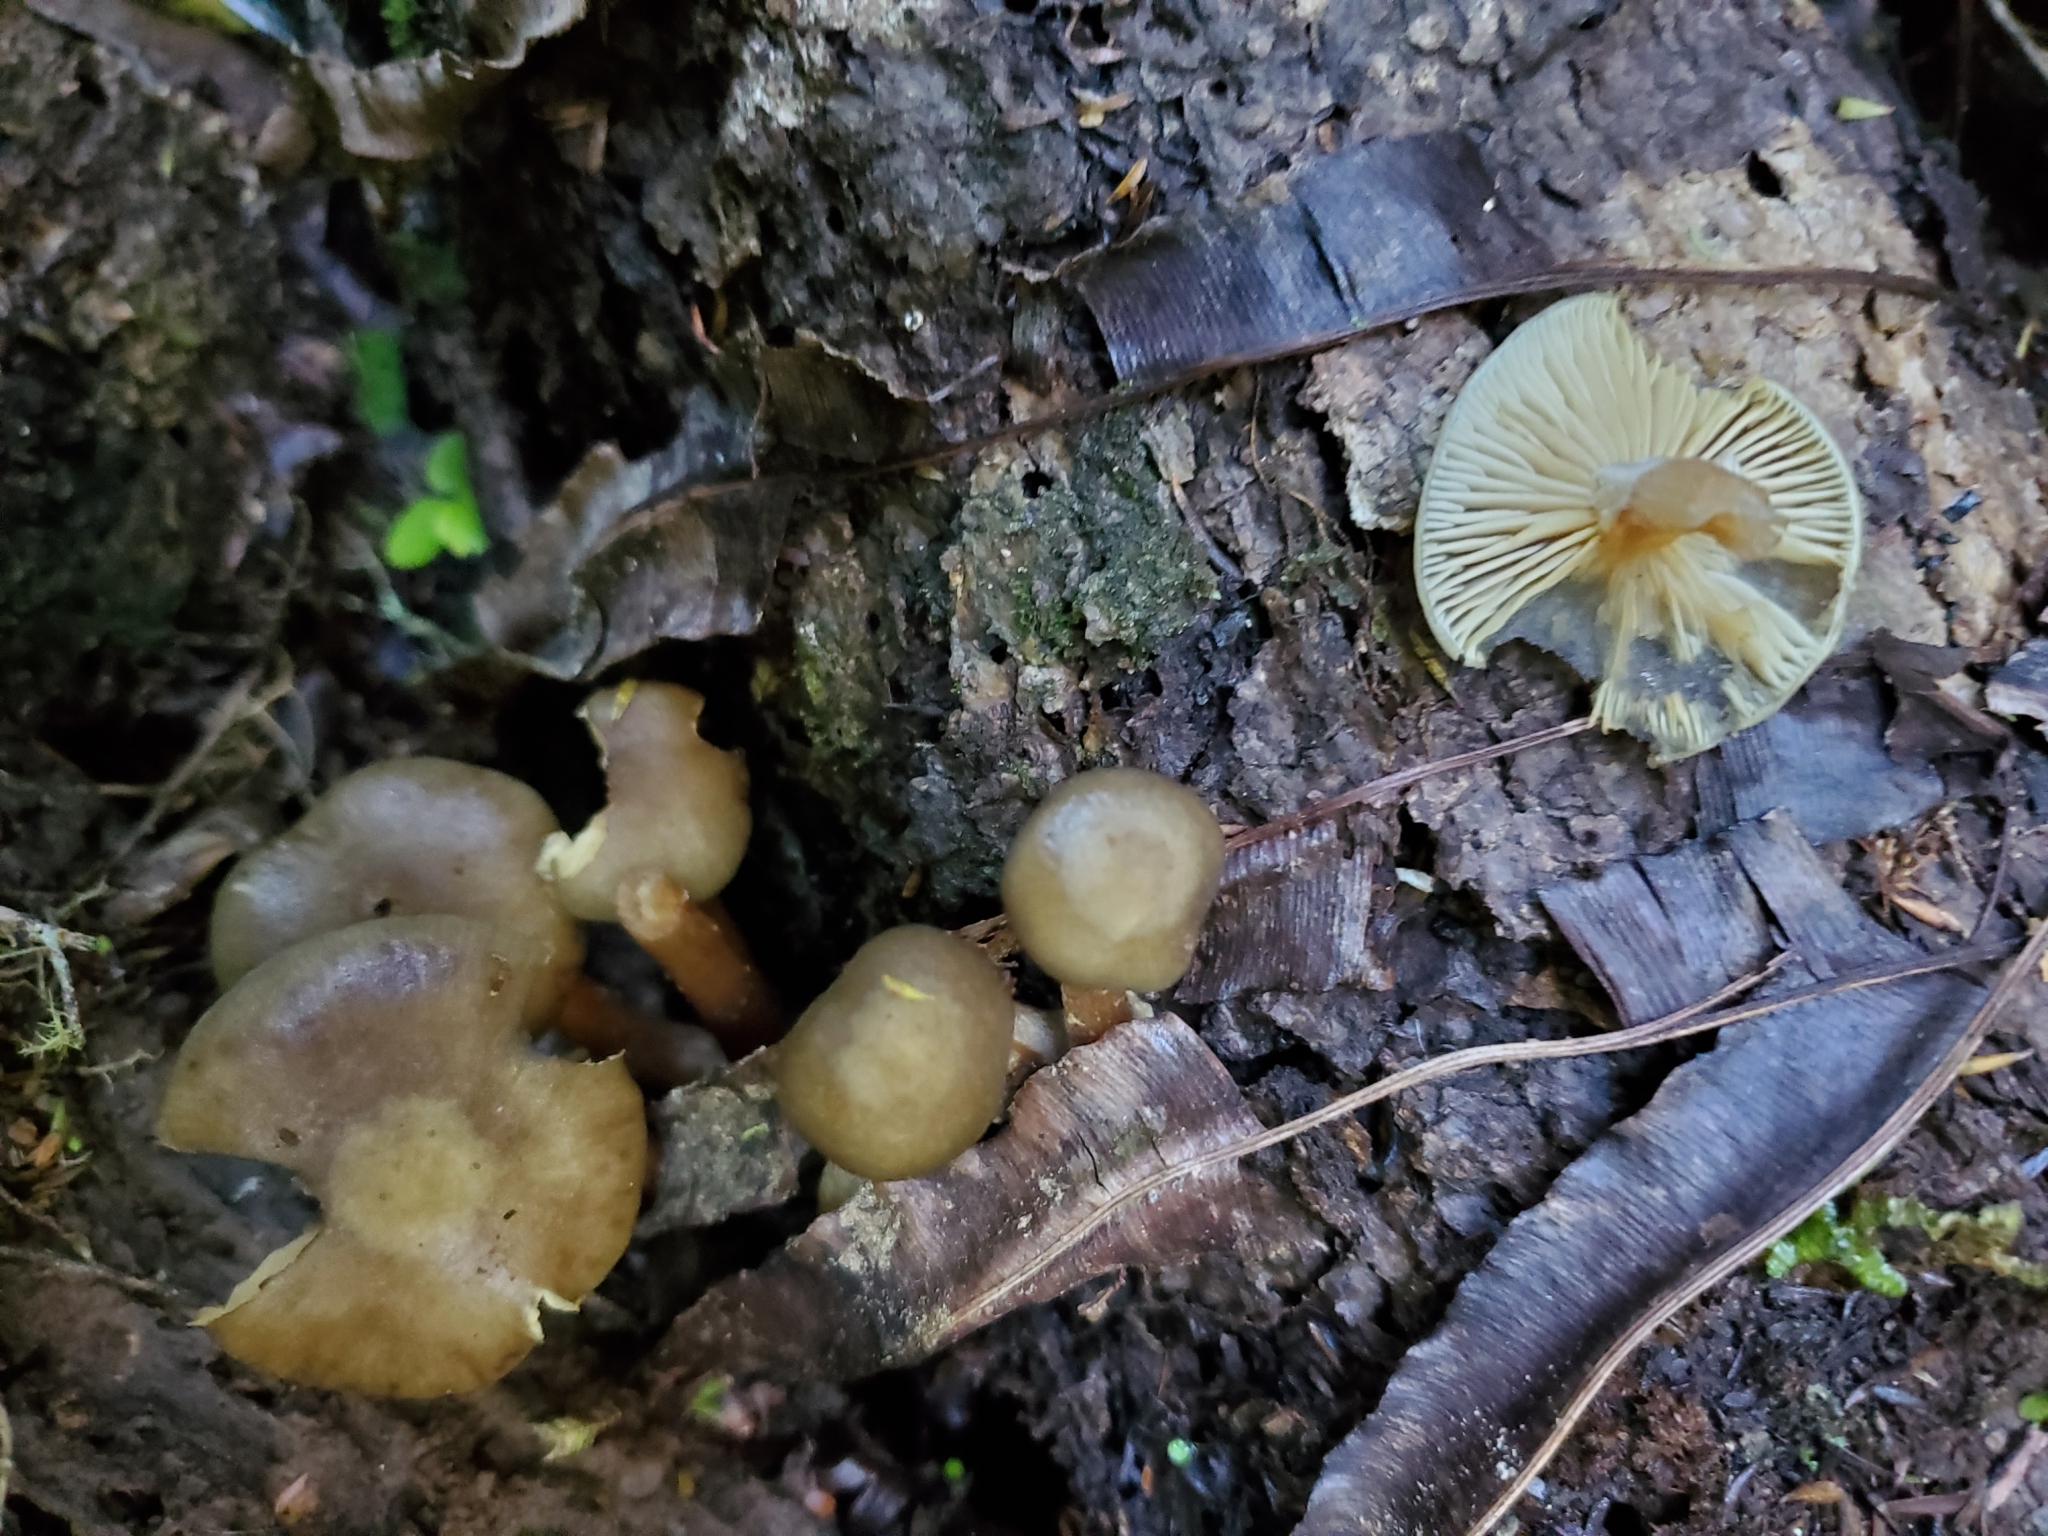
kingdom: Fungi
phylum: Basidiomycota
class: Agaricomycetes
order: Agaricales
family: Physalacriaceae
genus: Armillaria
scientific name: Armillaria novae-zelandiae
